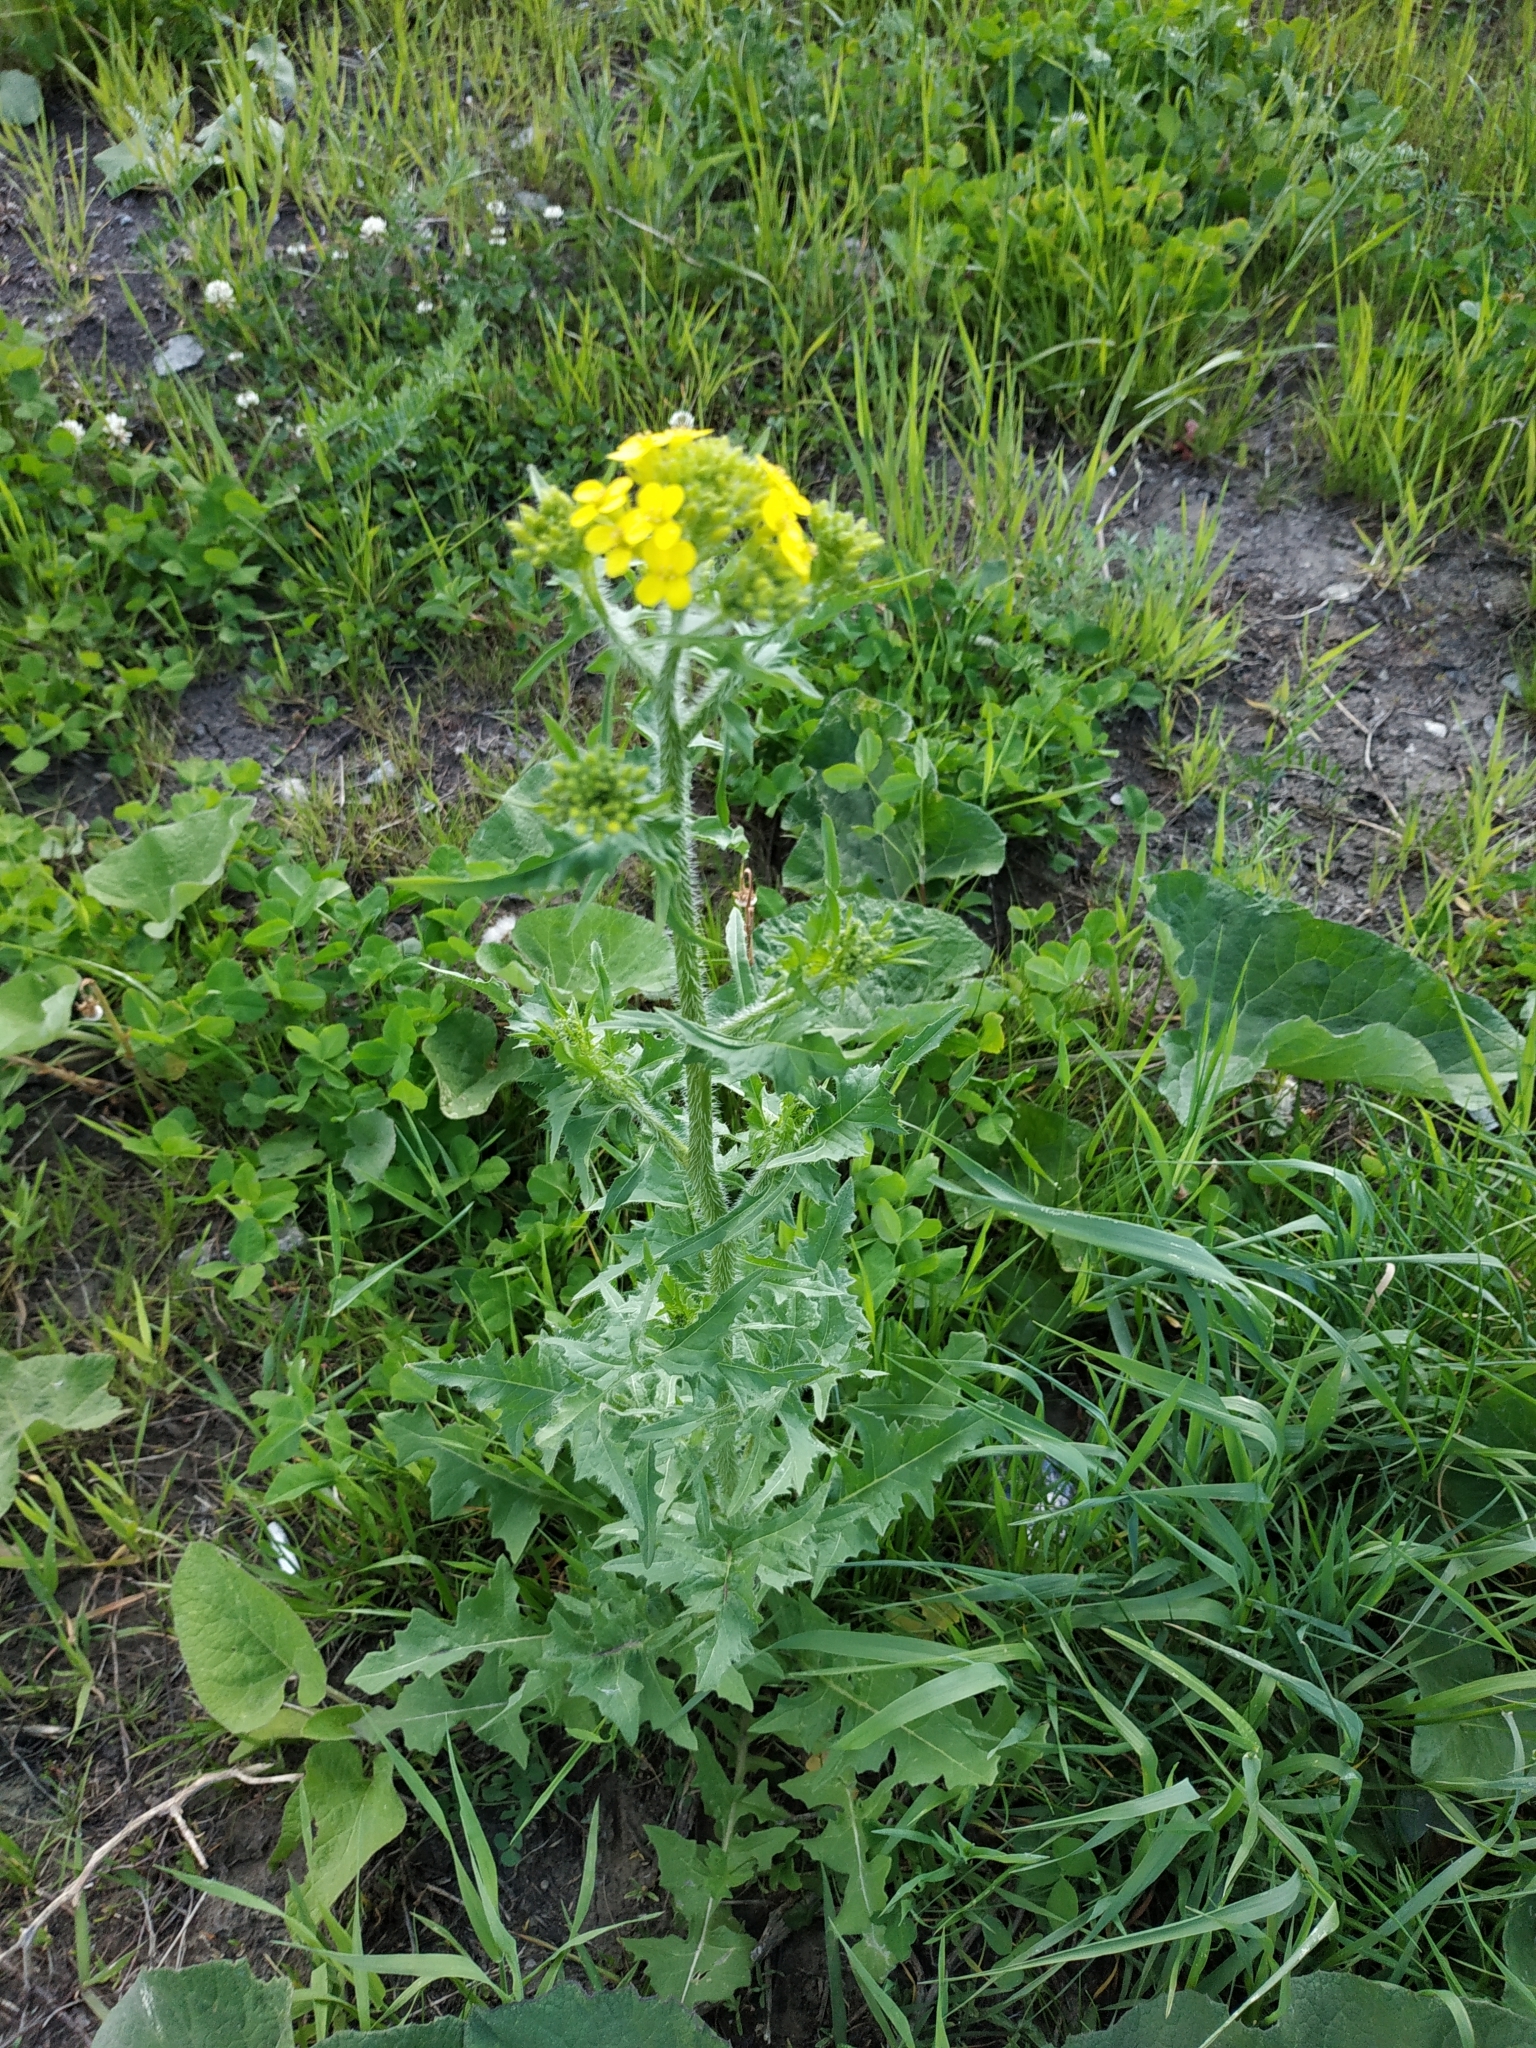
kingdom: Plantae
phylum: Tracheophyta
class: Magnoliopsida
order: Brassicales
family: Brassicaceae
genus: Sisymbrium
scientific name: Sisymbrium loeselii
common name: False london-rocket
